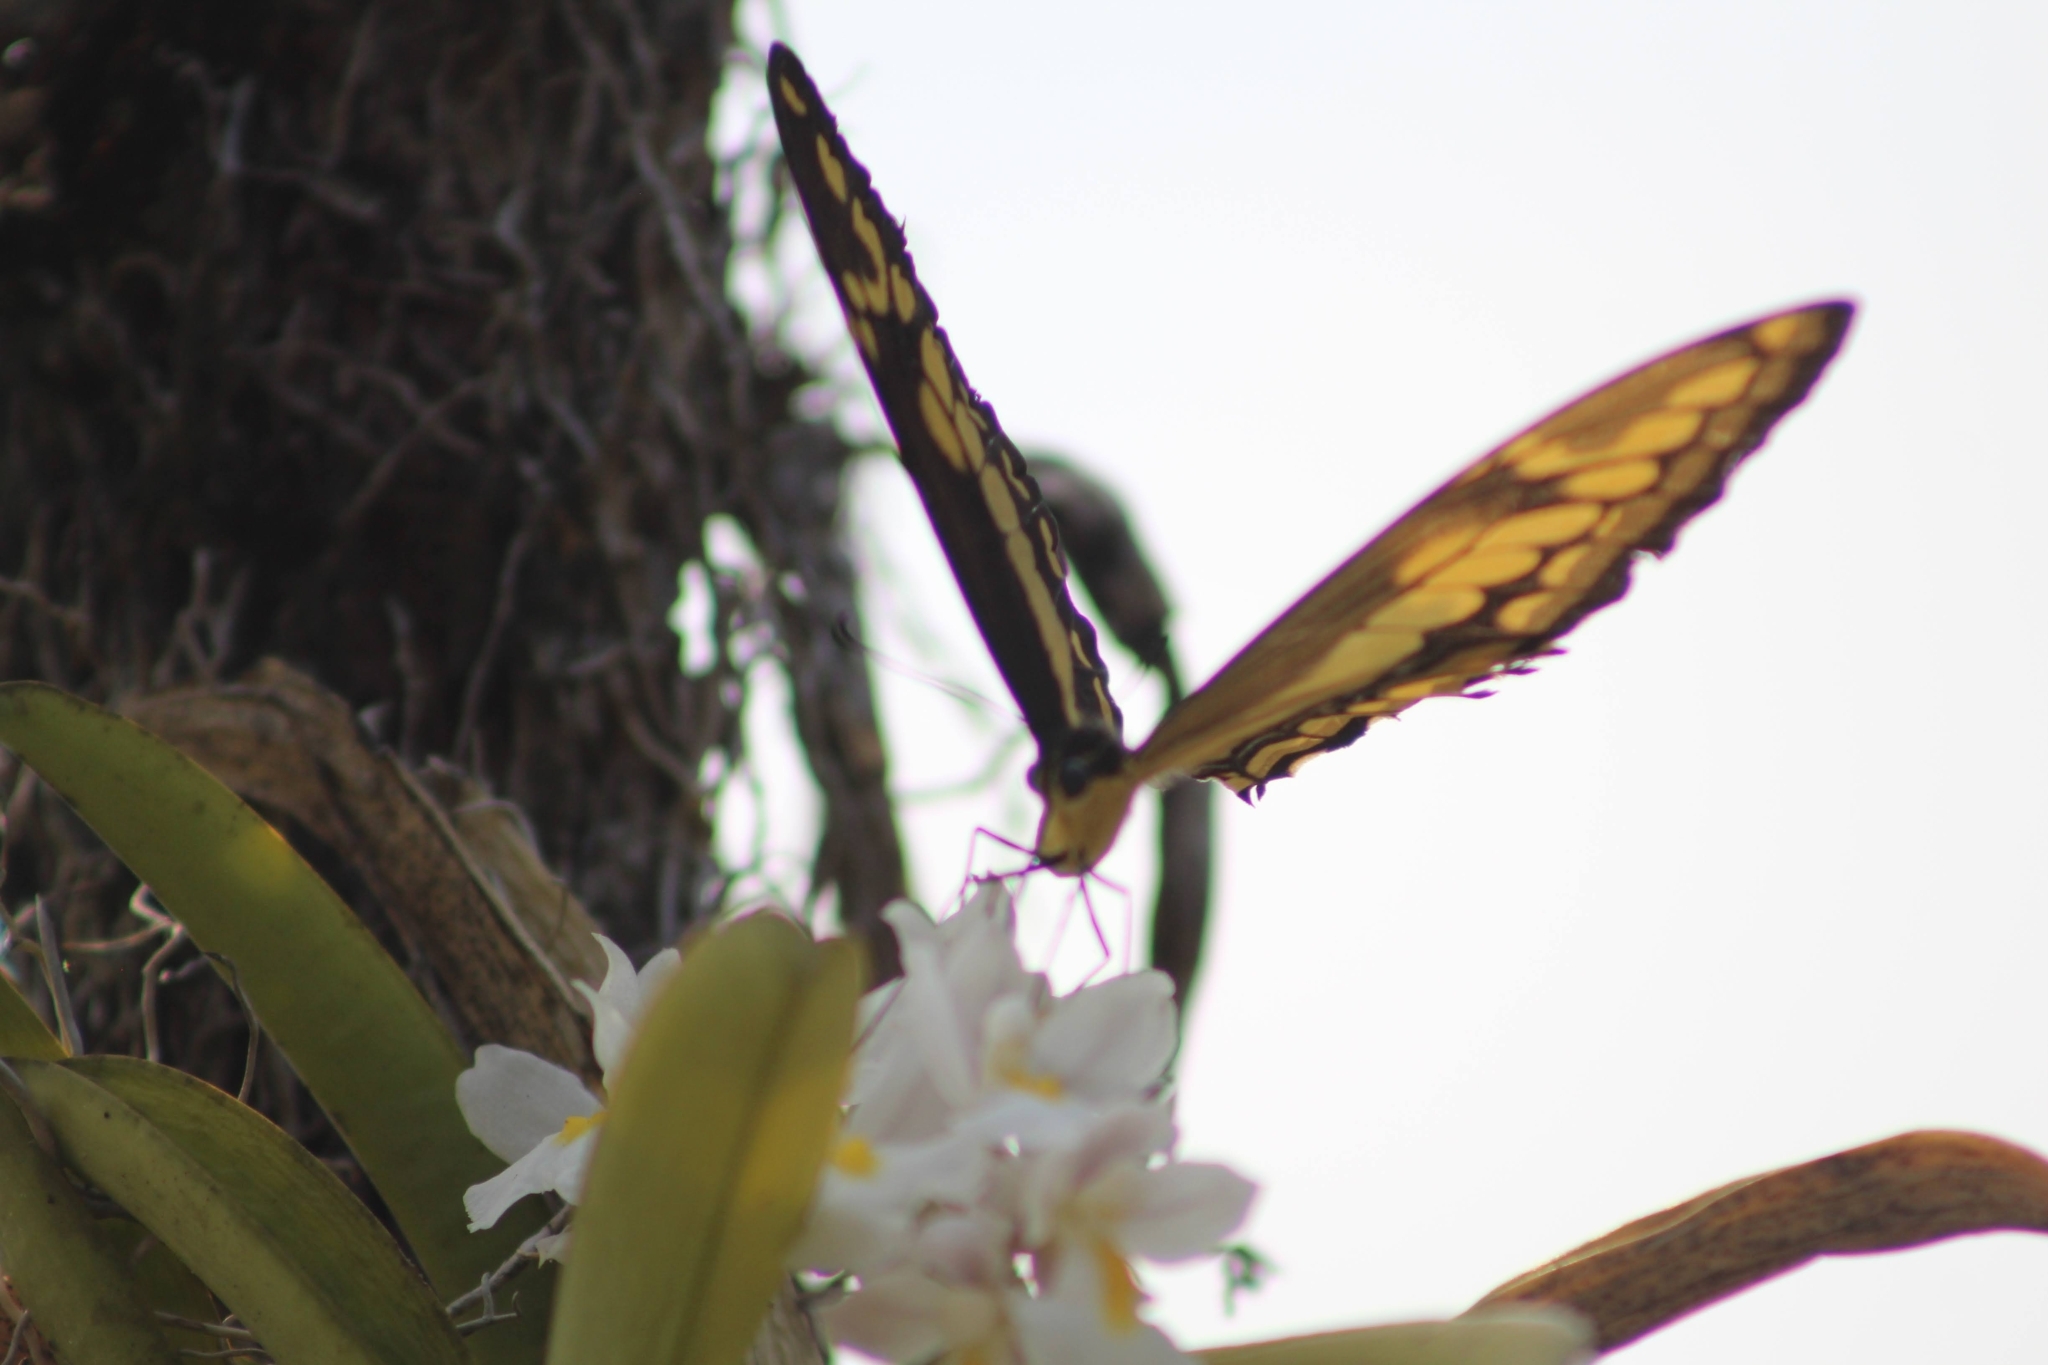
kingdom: Animalia
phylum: Arthropoda
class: Insecta
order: Lepidoptera
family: Papilionidae
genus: Papilio
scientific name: Papilio thoas
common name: King swallowtail
